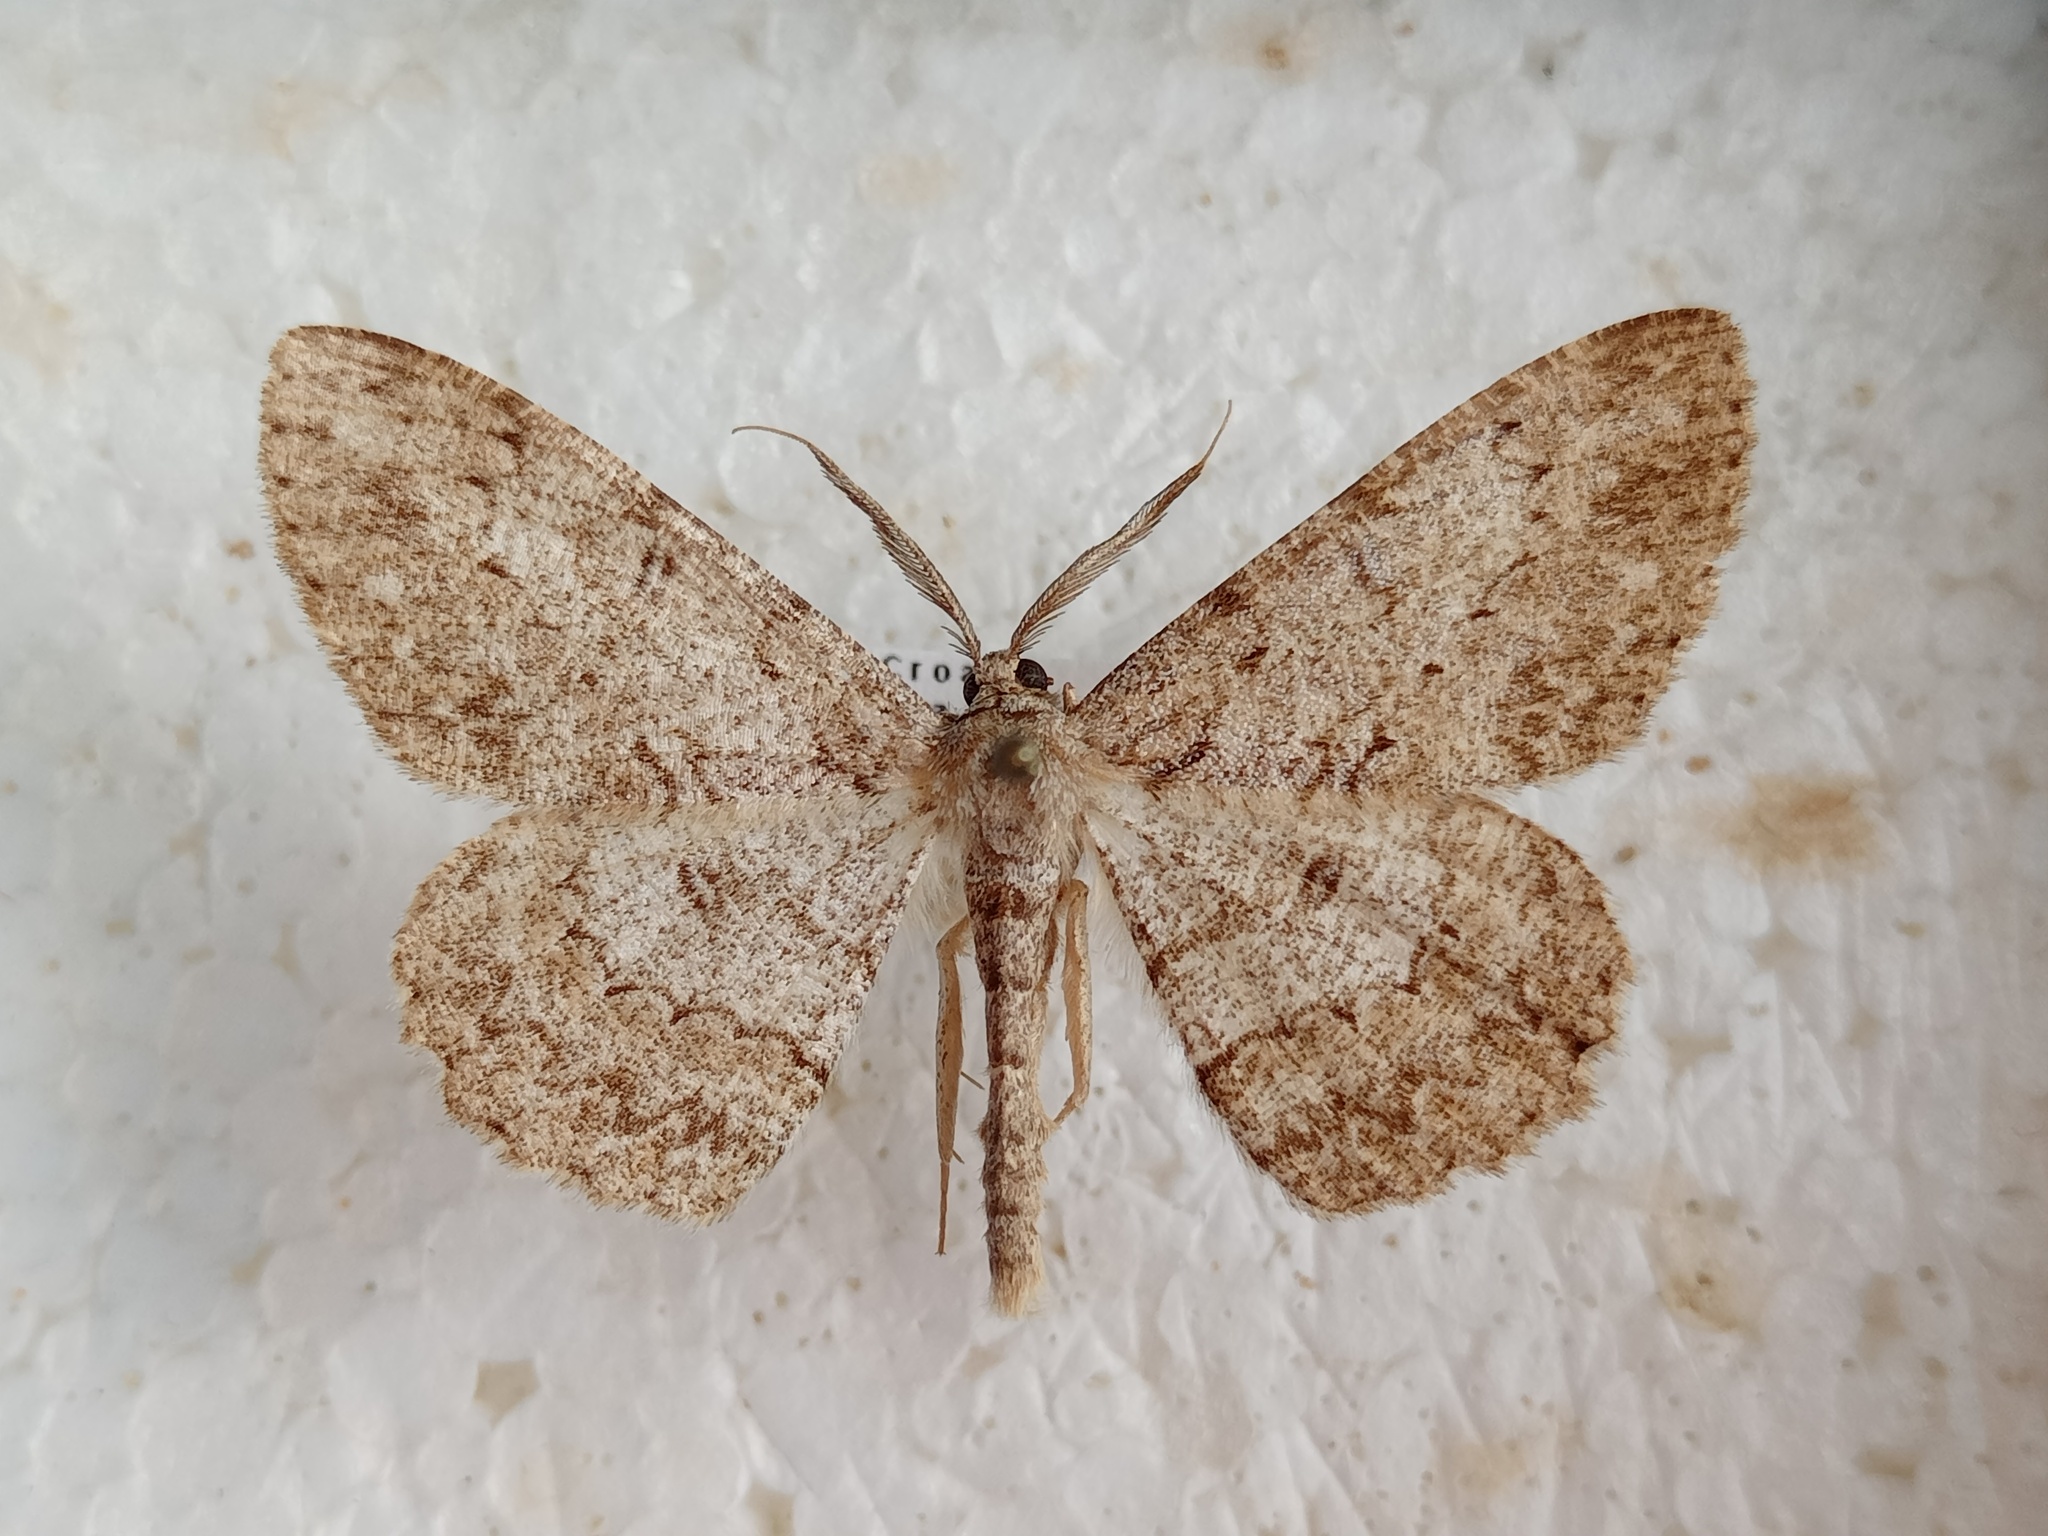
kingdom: Animalia
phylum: Arthropoda
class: Insecta
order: Lepidoptera
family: Geometridae
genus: Hypomecis
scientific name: Hypomecis punctinalis
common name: Pale oak beauty
